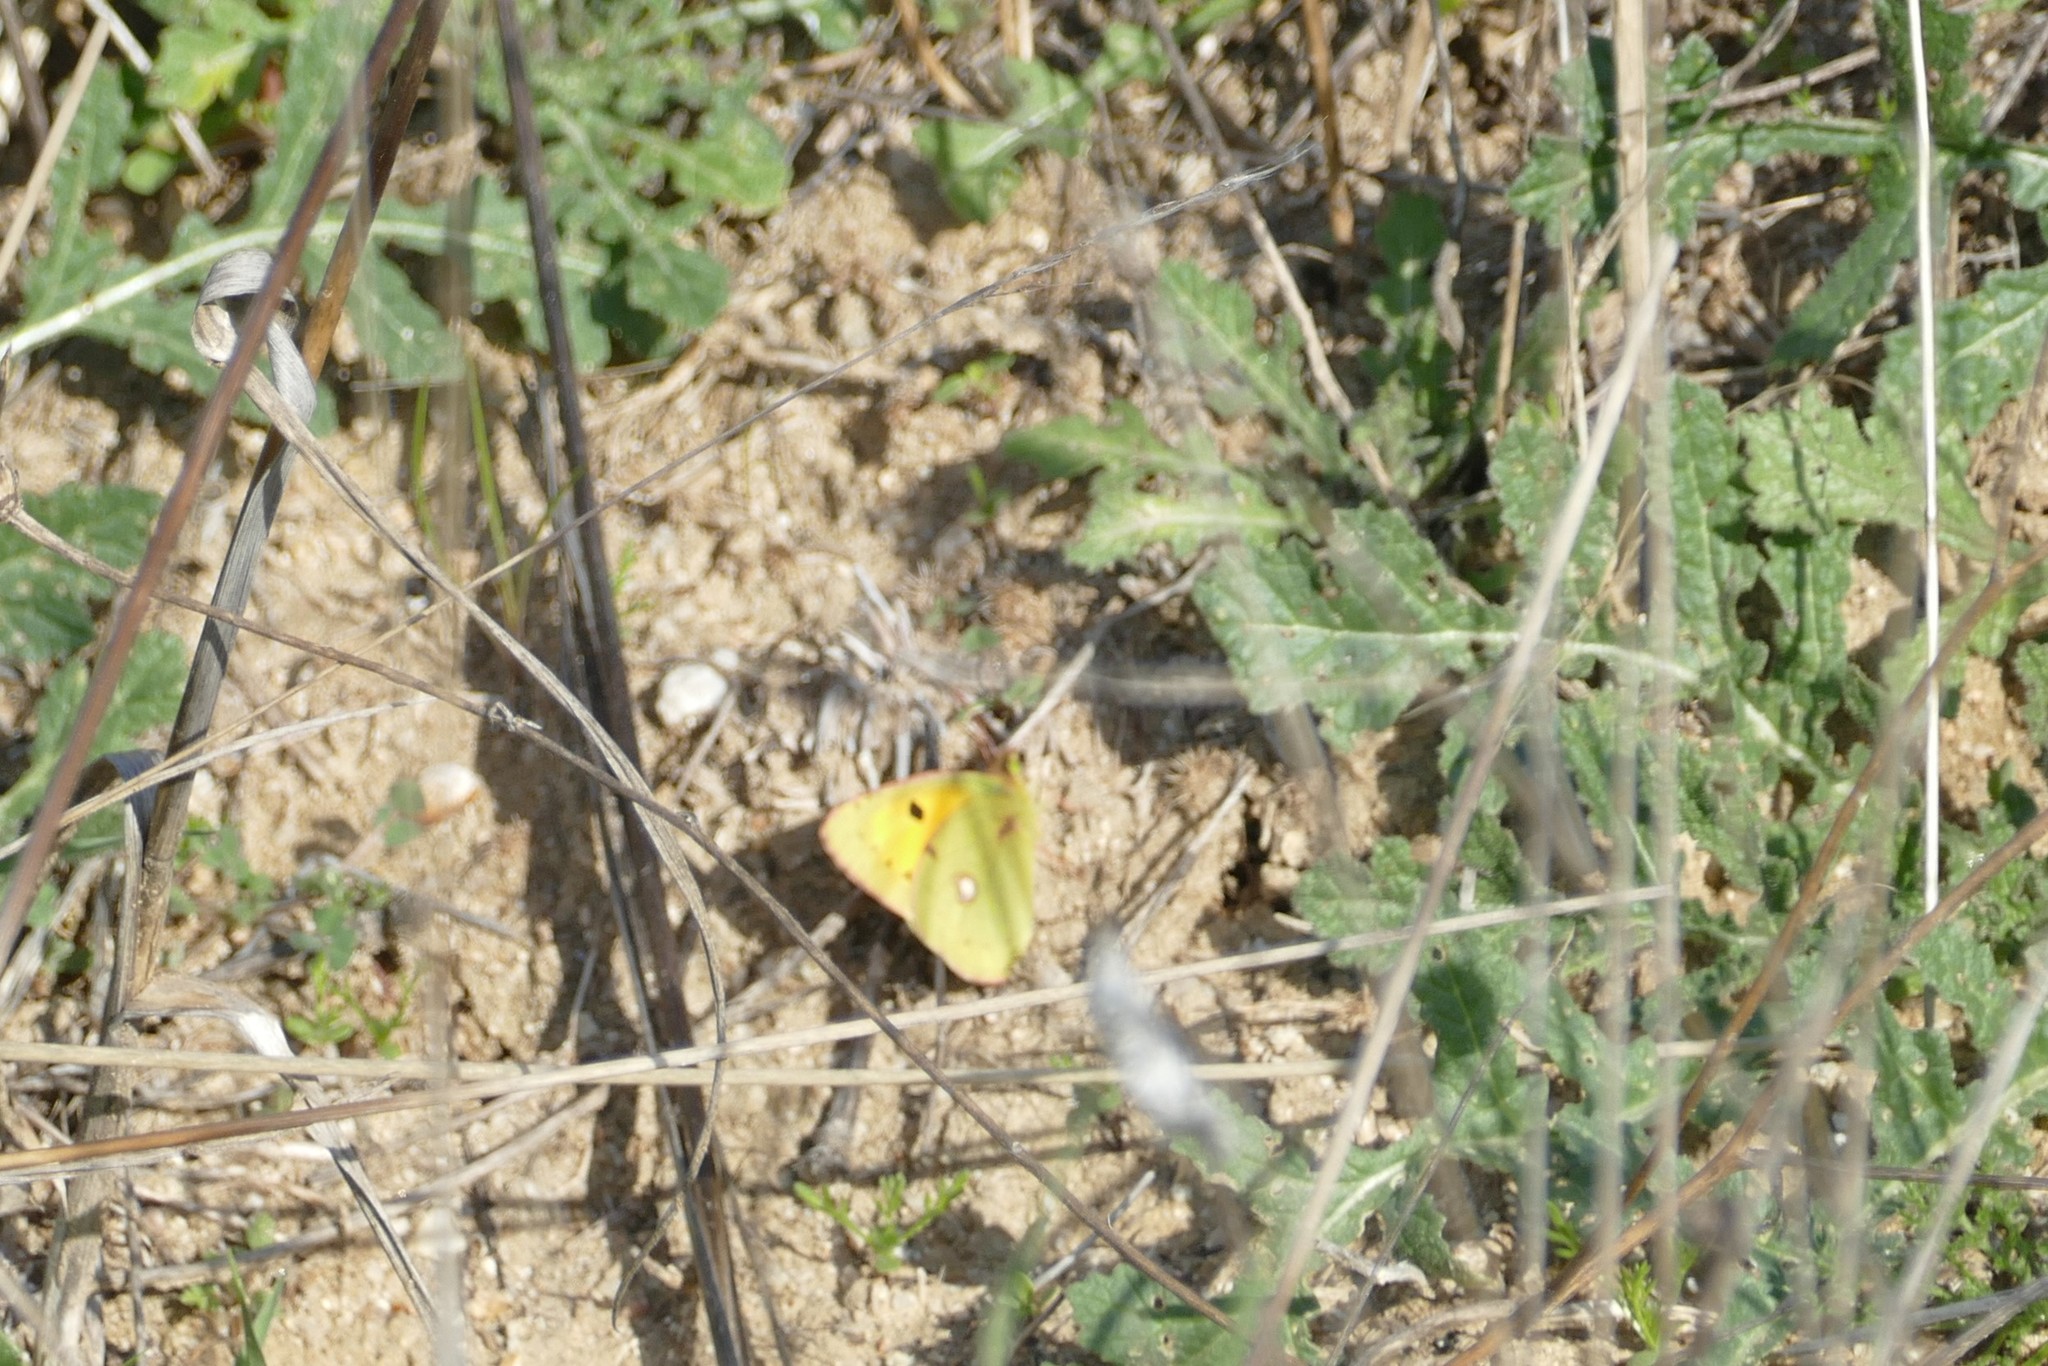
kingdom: Animalia
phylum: Arthropoda
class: Insecta
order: Lepidoptera
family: Pieridae
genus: Colias
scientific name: Colias croceus
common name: Clouded yellow
